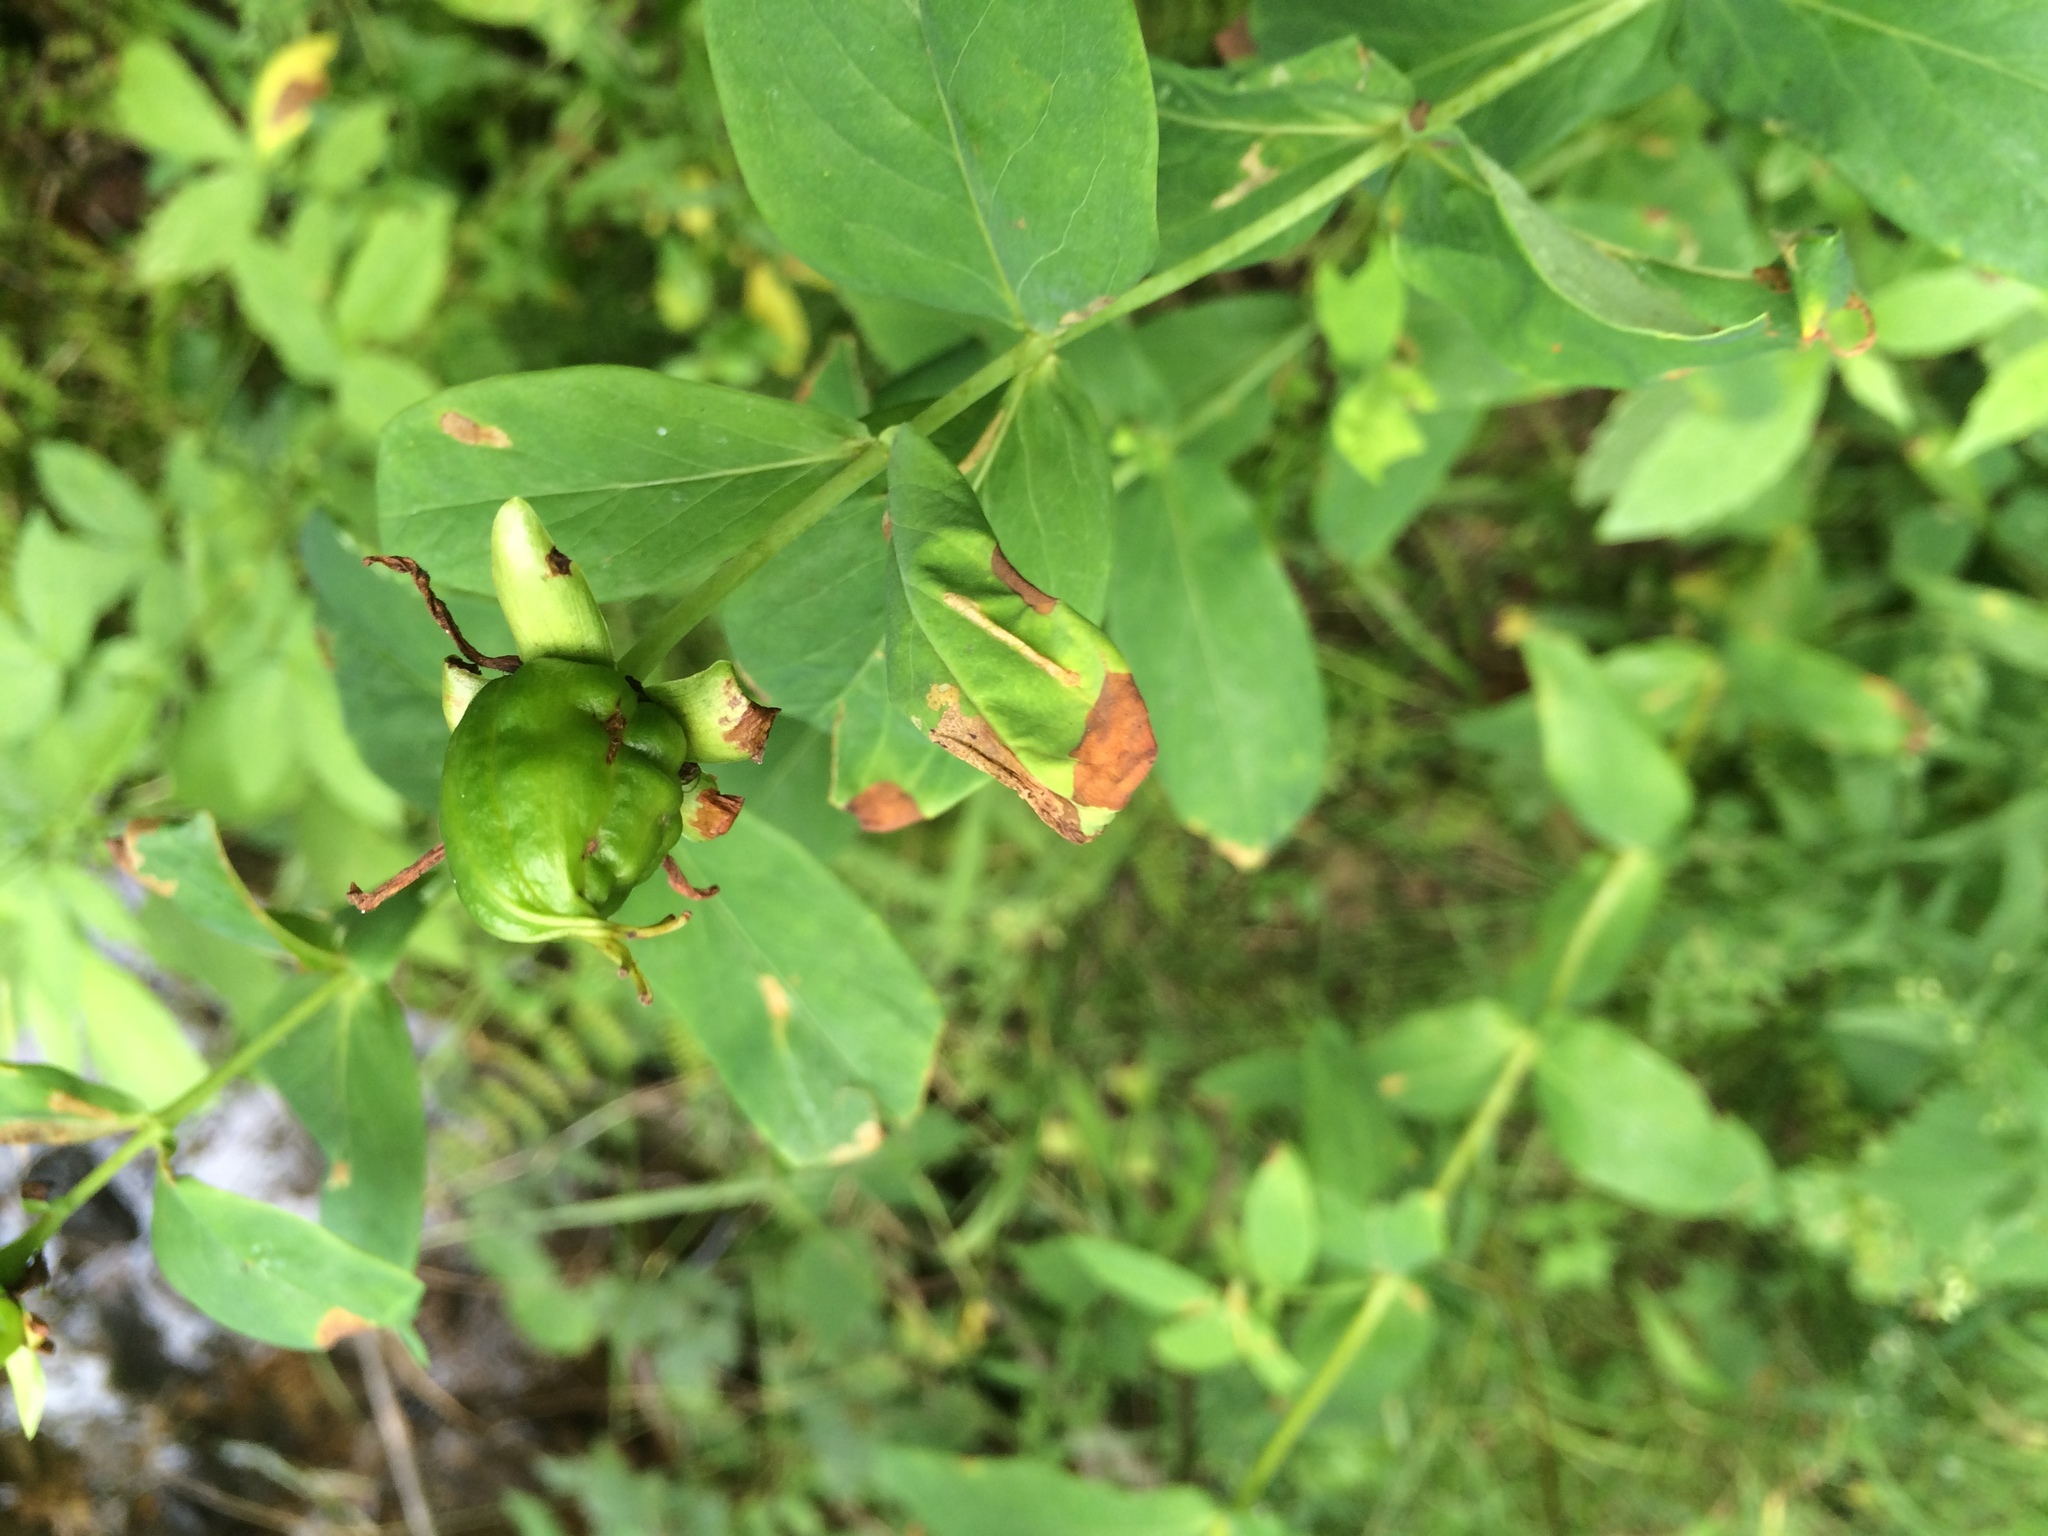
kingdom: Plantae
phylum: Tracheophyta
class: Magnoliopsida
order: Malpighiales
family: Hypericaceae
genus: Hypericum
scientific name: Hypericum ascyron
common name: Giant st. john's-wort
